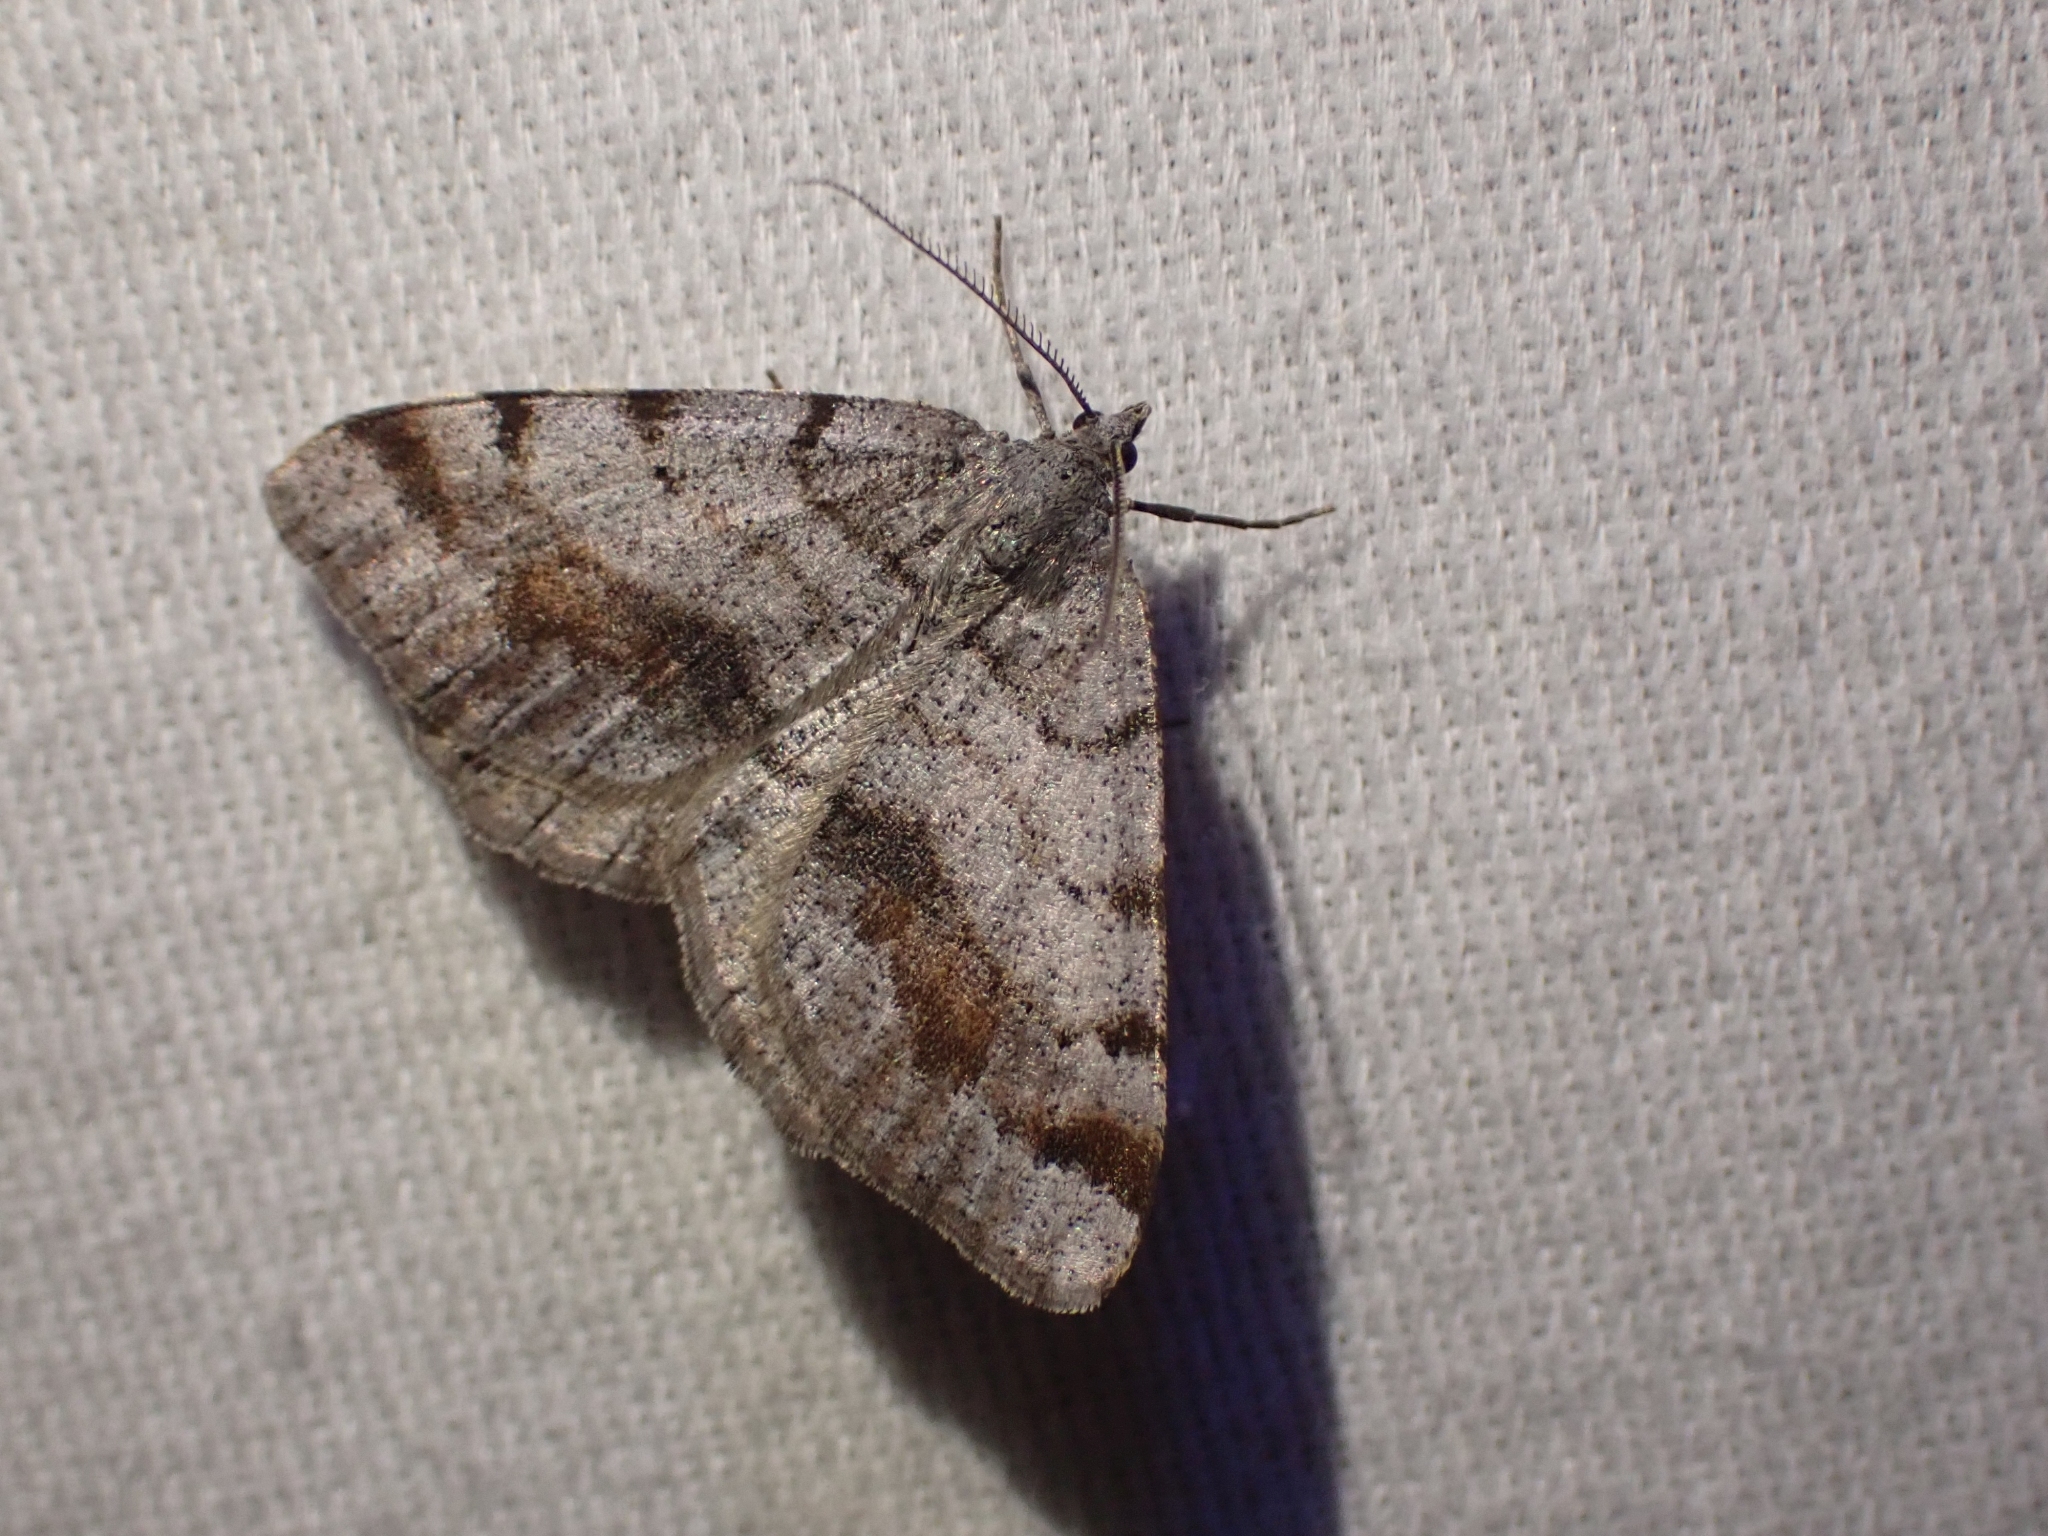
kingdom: Animalia
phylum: Arthropoda
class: Insecta
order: Lepidoptera
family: Geometridae
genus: Macaria
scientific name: Macaria
